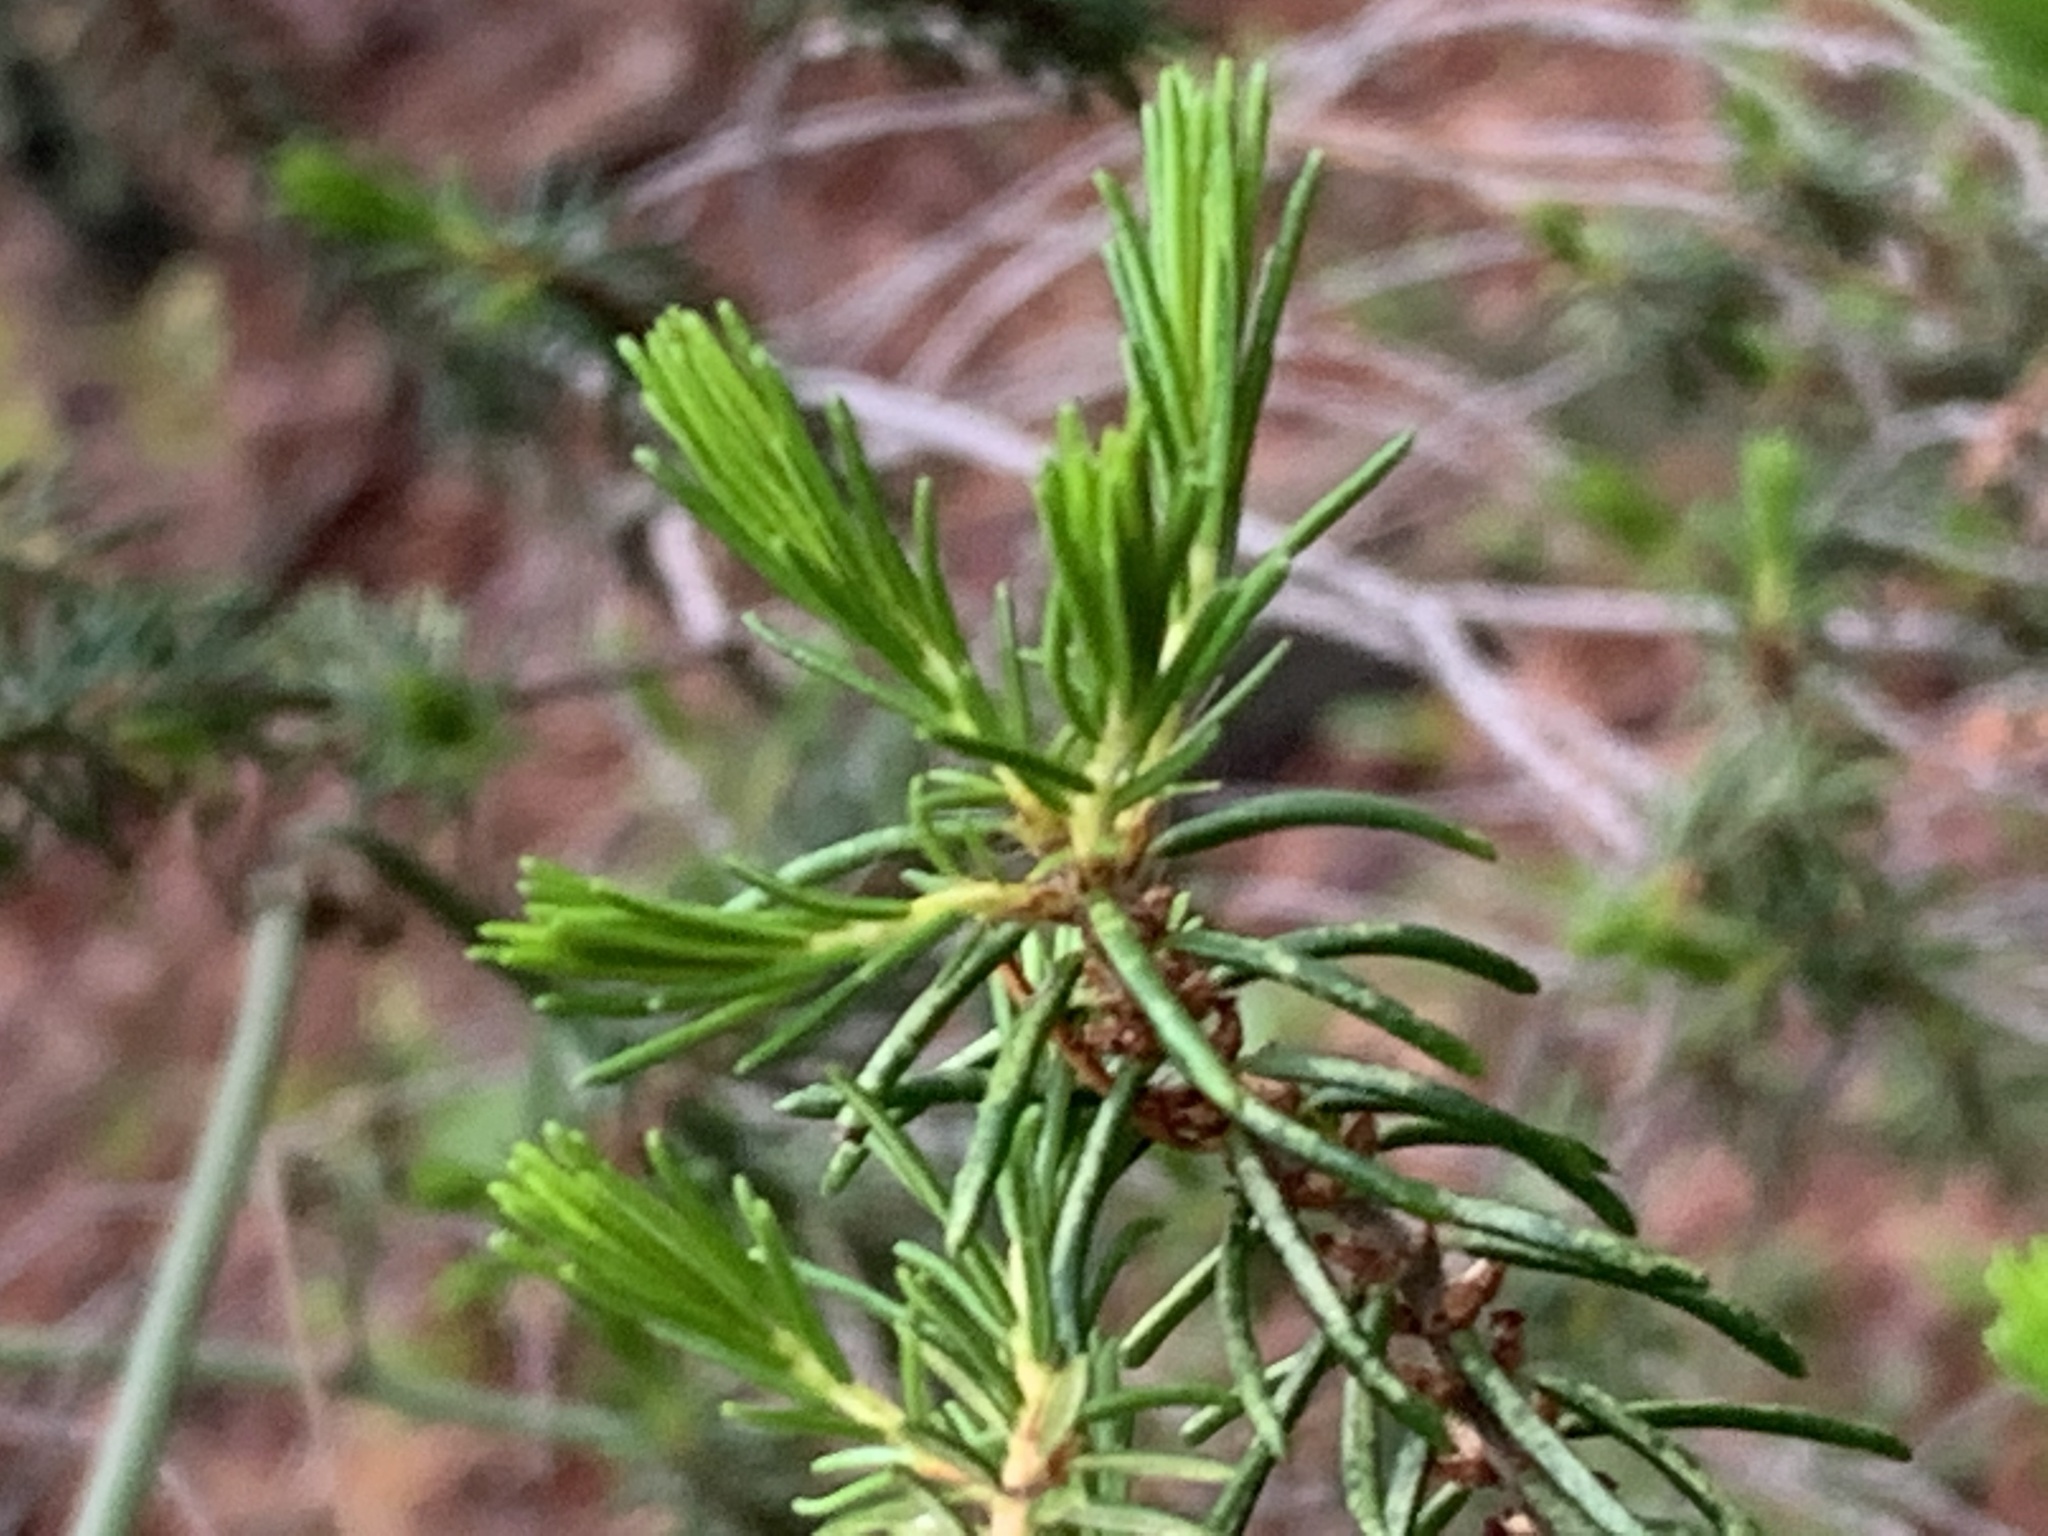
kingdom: Plantae
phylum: Tracheophyta
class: Magnoliopsida
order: Ericales
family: Ericaceae
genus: Ceratiola
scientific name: Ceratiola ericoides
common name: Sandhill-rosemary
